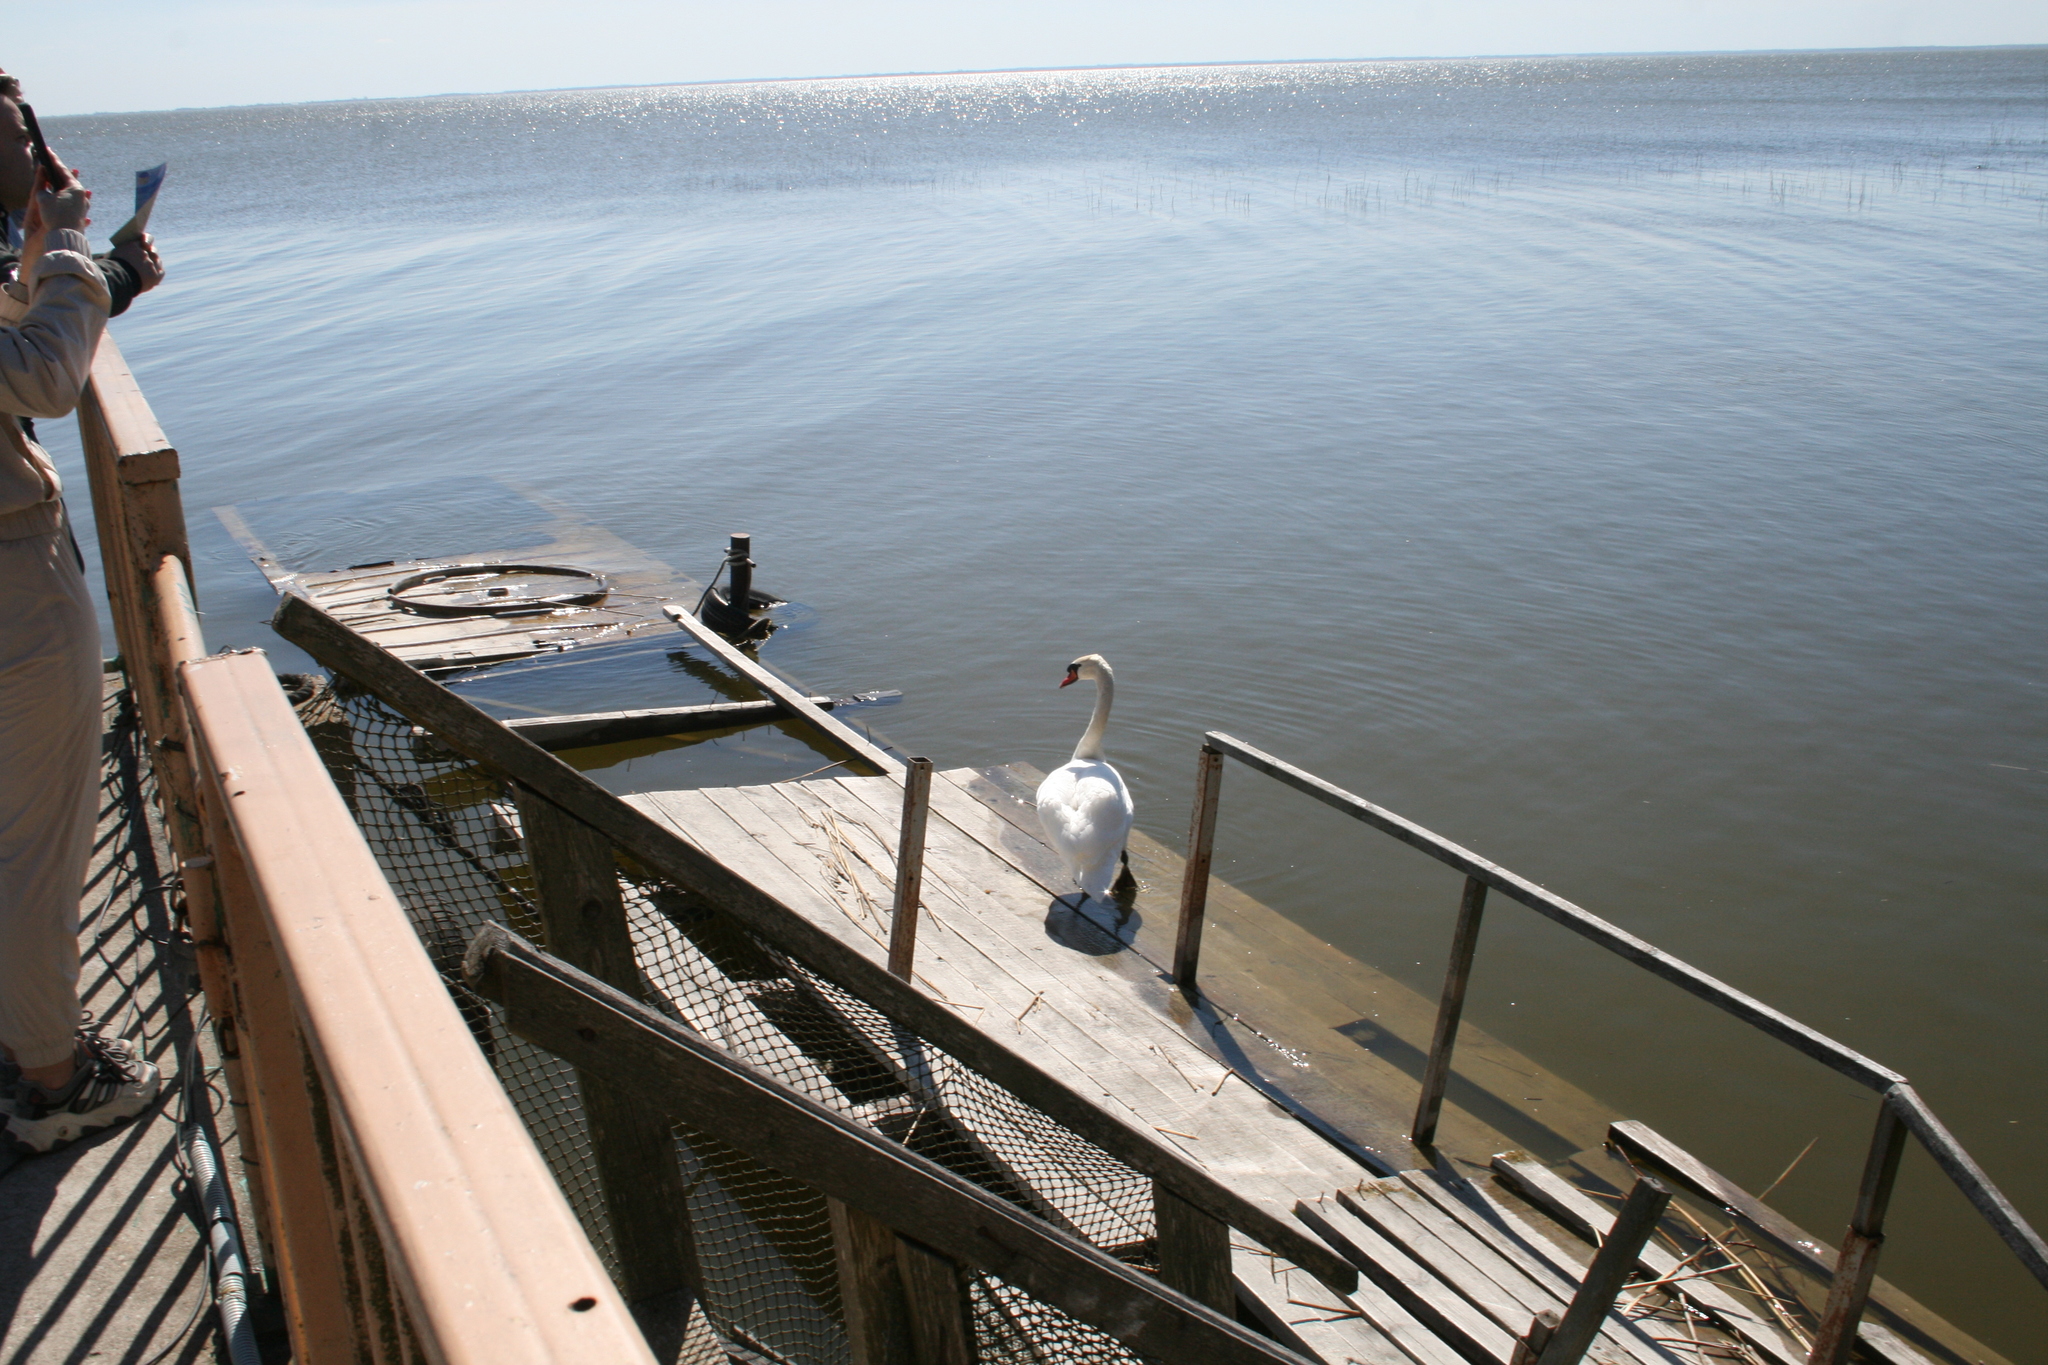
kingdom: Animalia
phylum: Chordata
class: Aves
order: Anseriformes
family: Anatidae
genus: Cygnus
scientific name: Cygnus olor
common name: Mute swan
